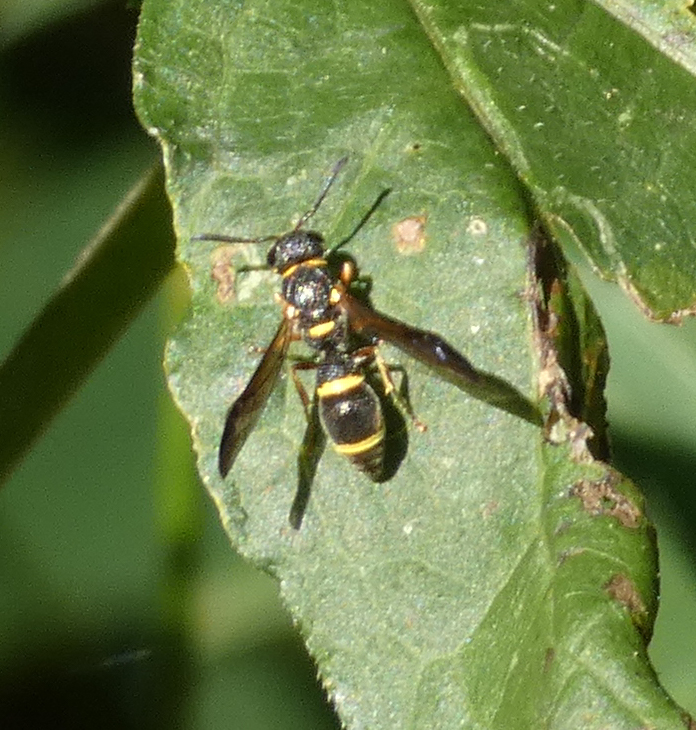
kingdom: Animalia
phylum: Arthropoda
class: Insecta
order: Hymenoptera
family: Eumenidae
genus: Parancistrocerus
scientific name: Parancistrocerus perennis
